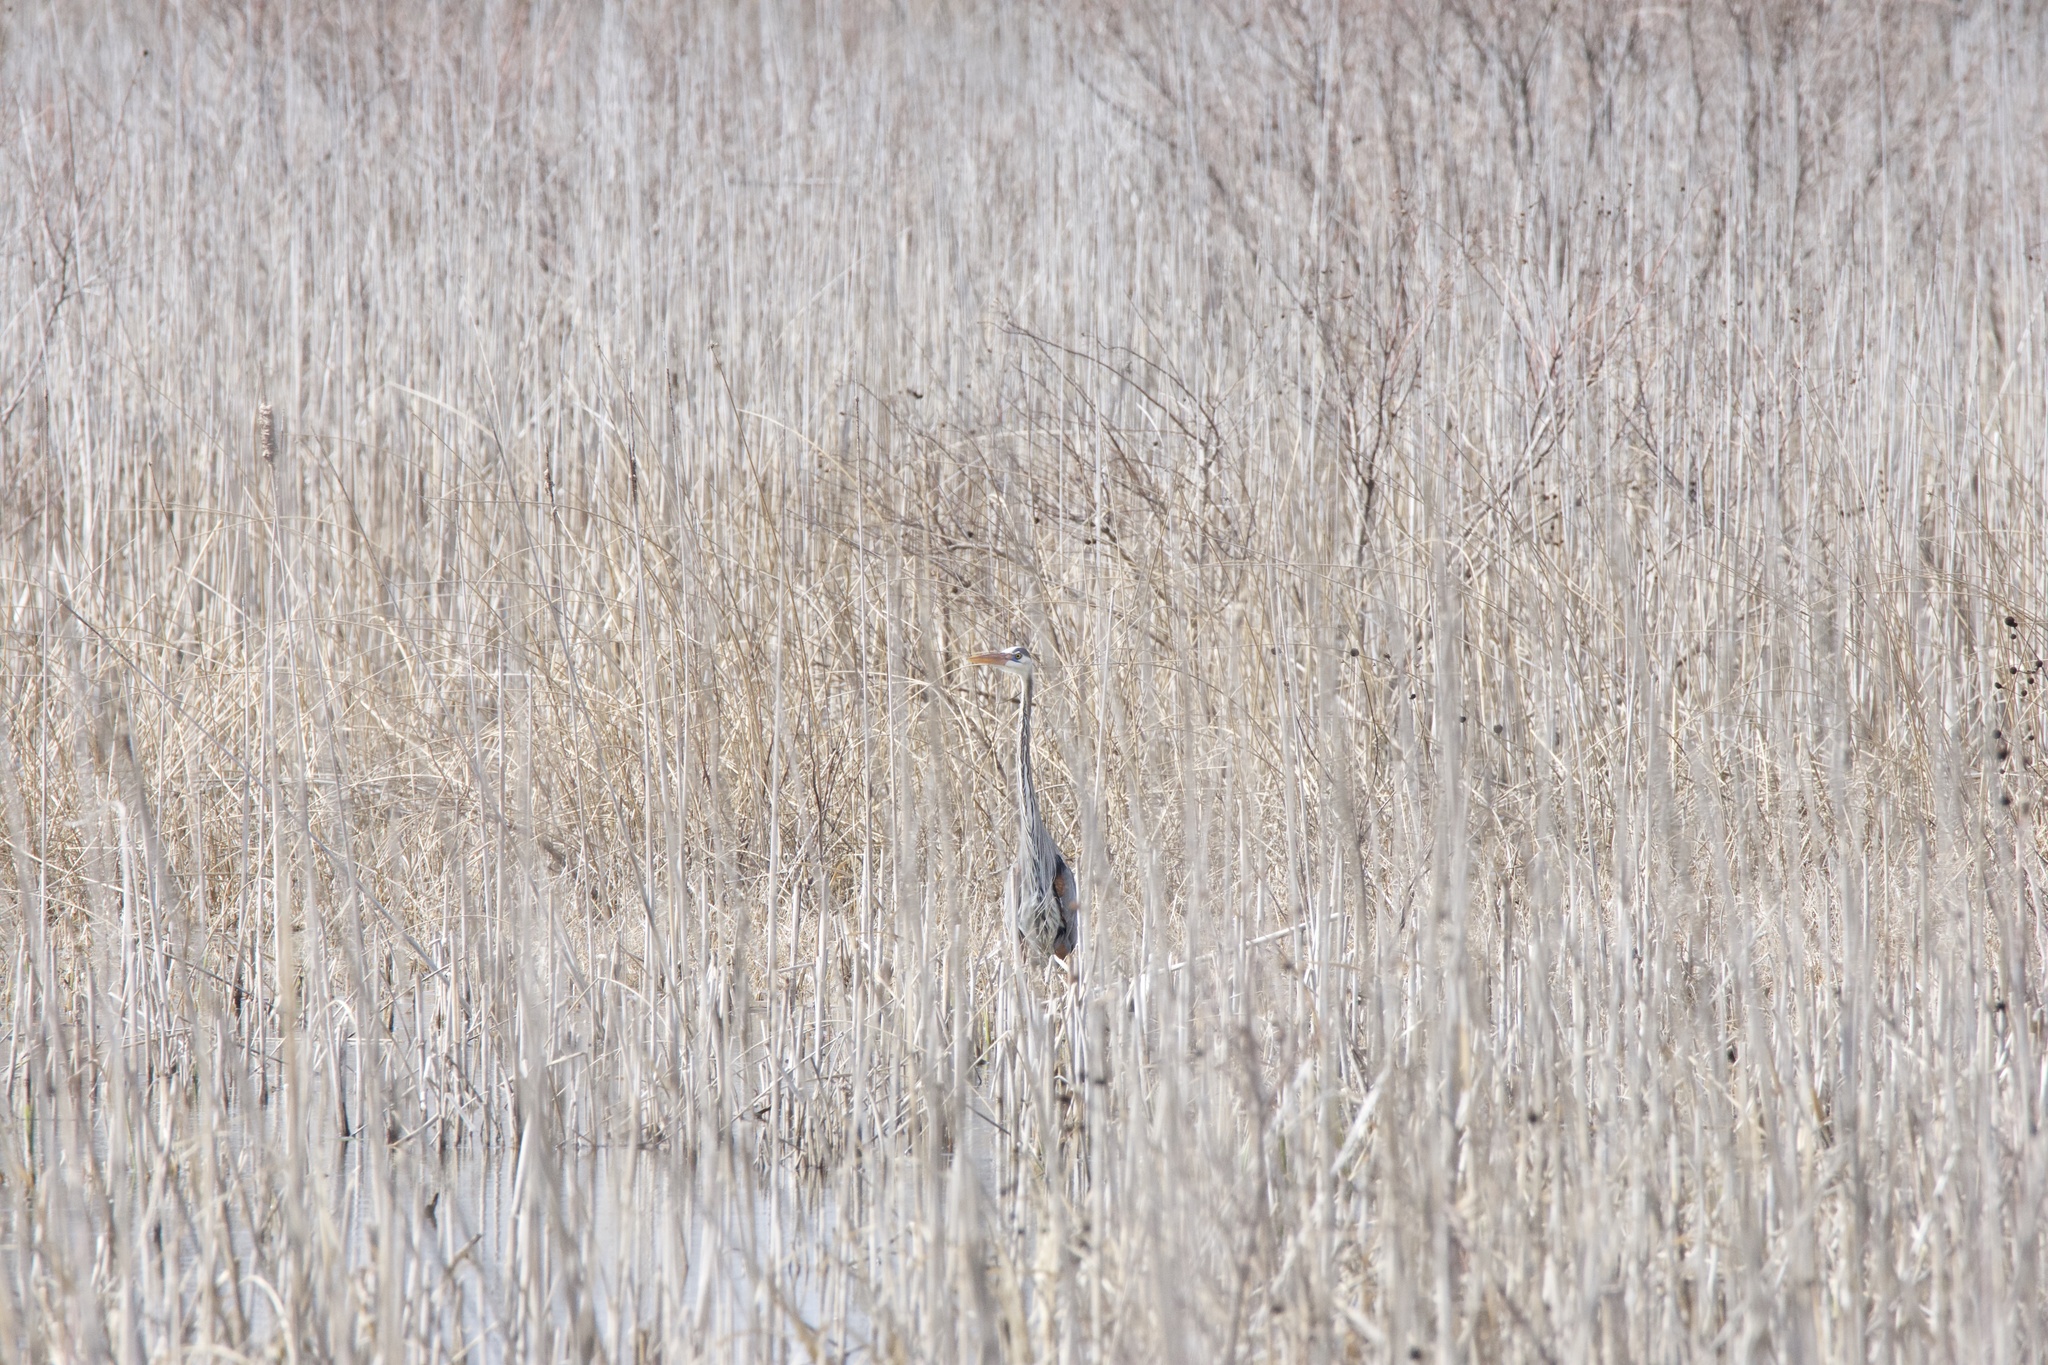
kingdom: Animalia
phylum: Chordata
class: Aves
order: Pelecaniformes
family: Ardeidae
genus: Ardea
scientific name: Ardea herodias
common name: Great blue heron
